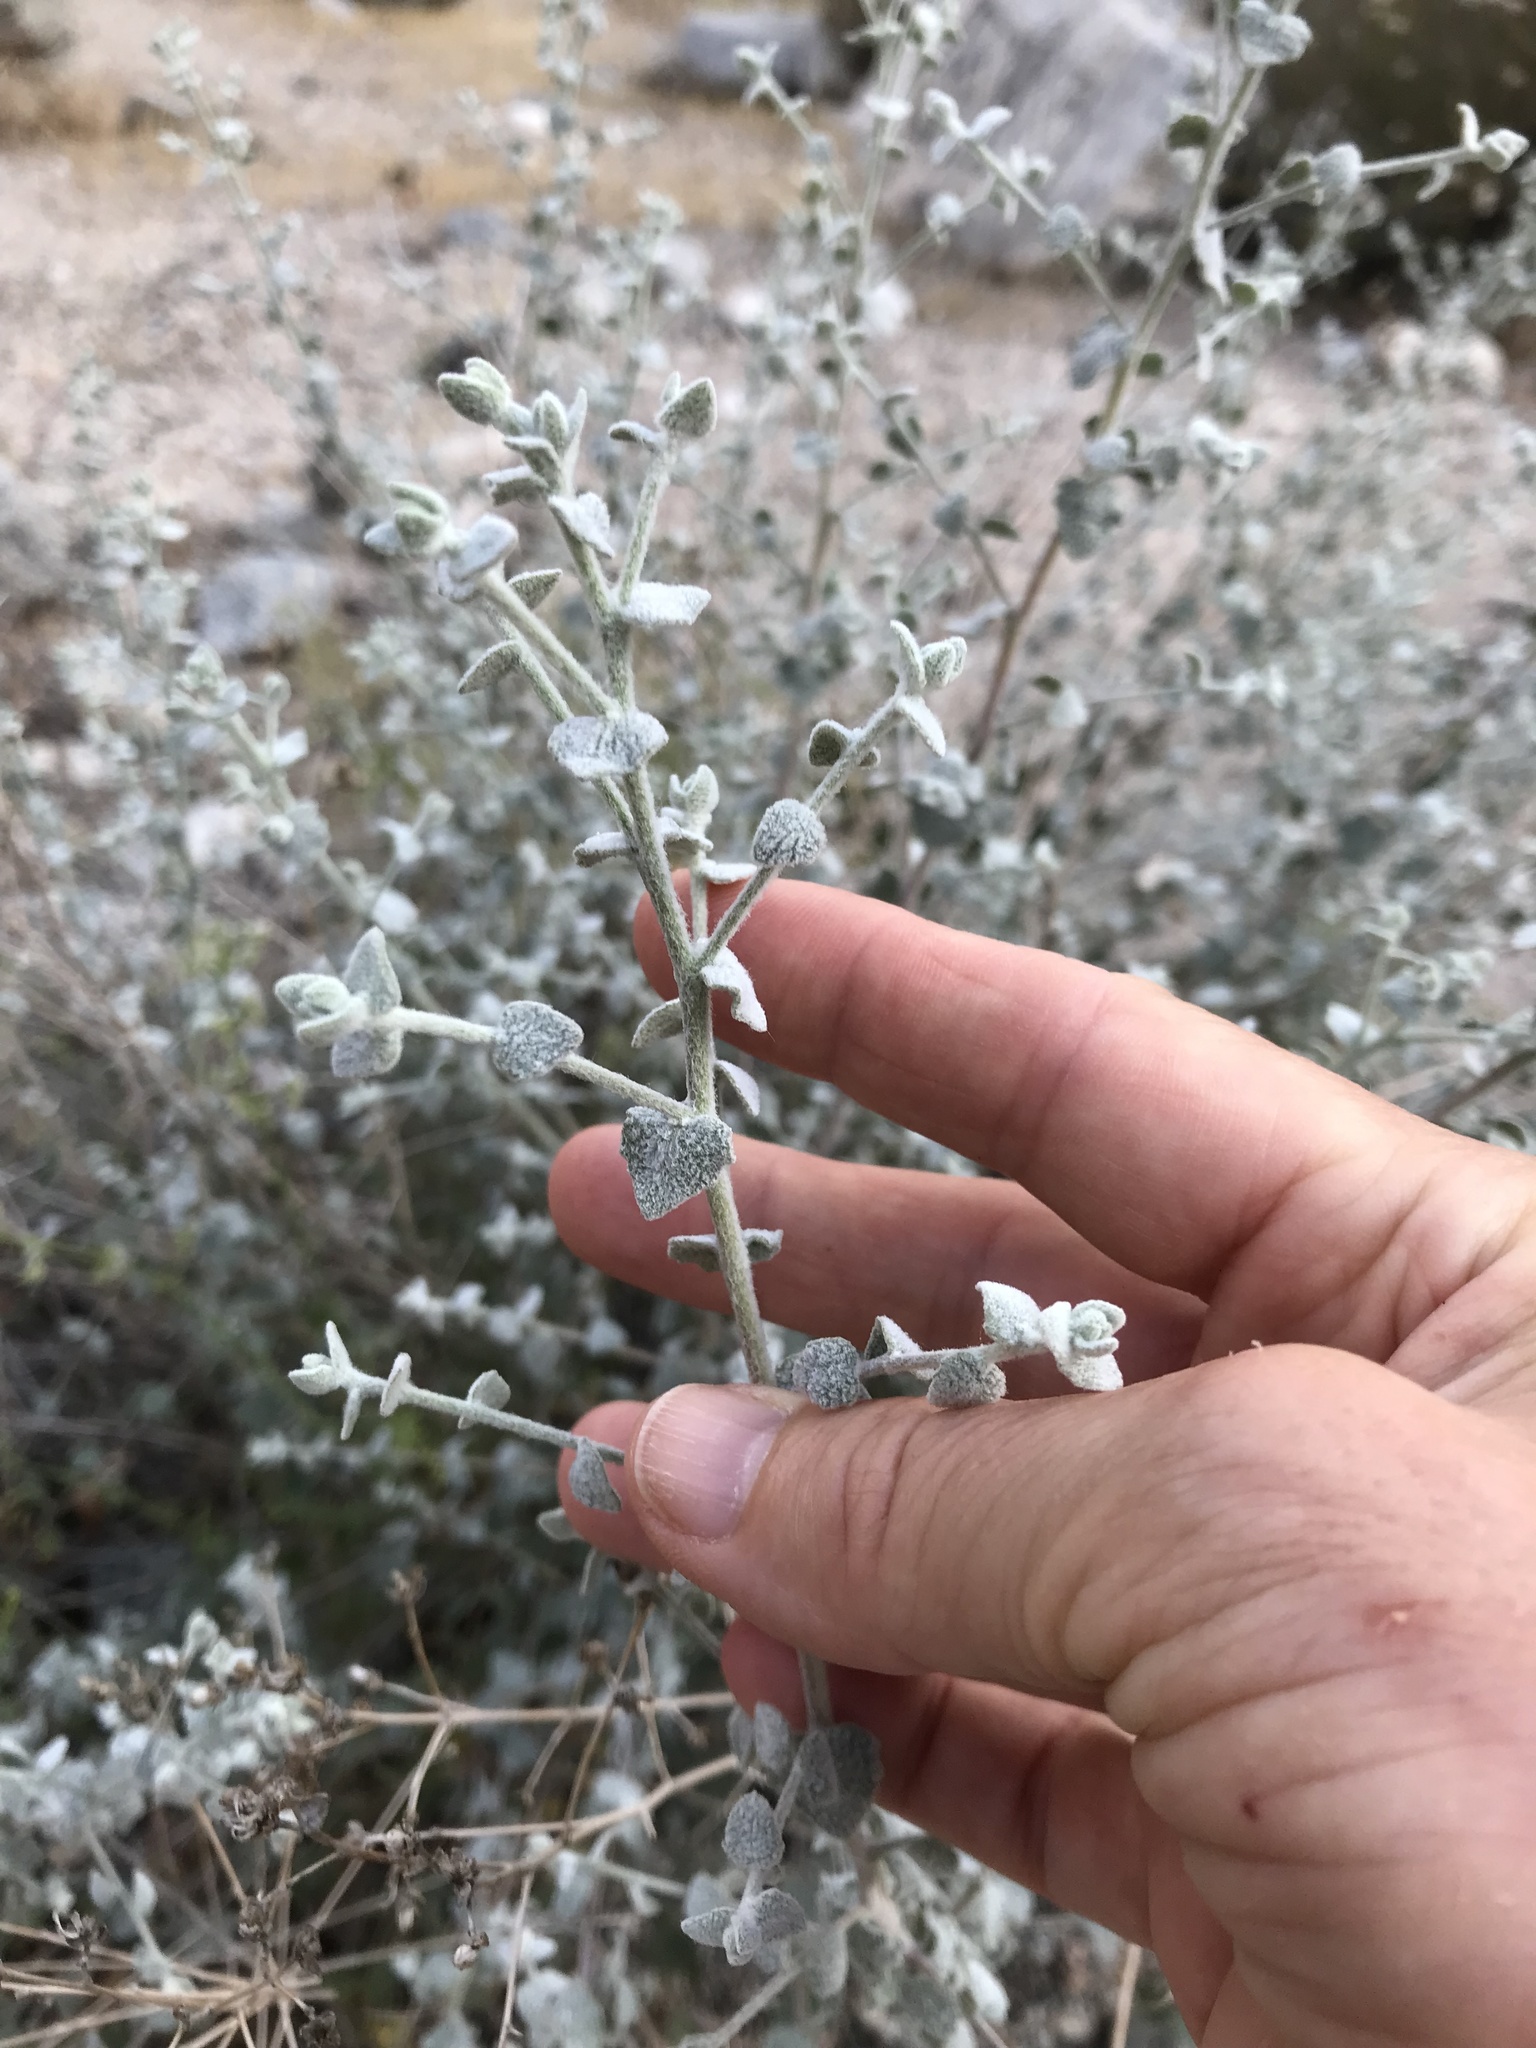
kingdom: Plantae
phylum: Tracheophyta
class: Magnoliopsida
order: Asterales
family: Asteraceae
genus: Brickellia
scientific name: Brickellia nevinii
